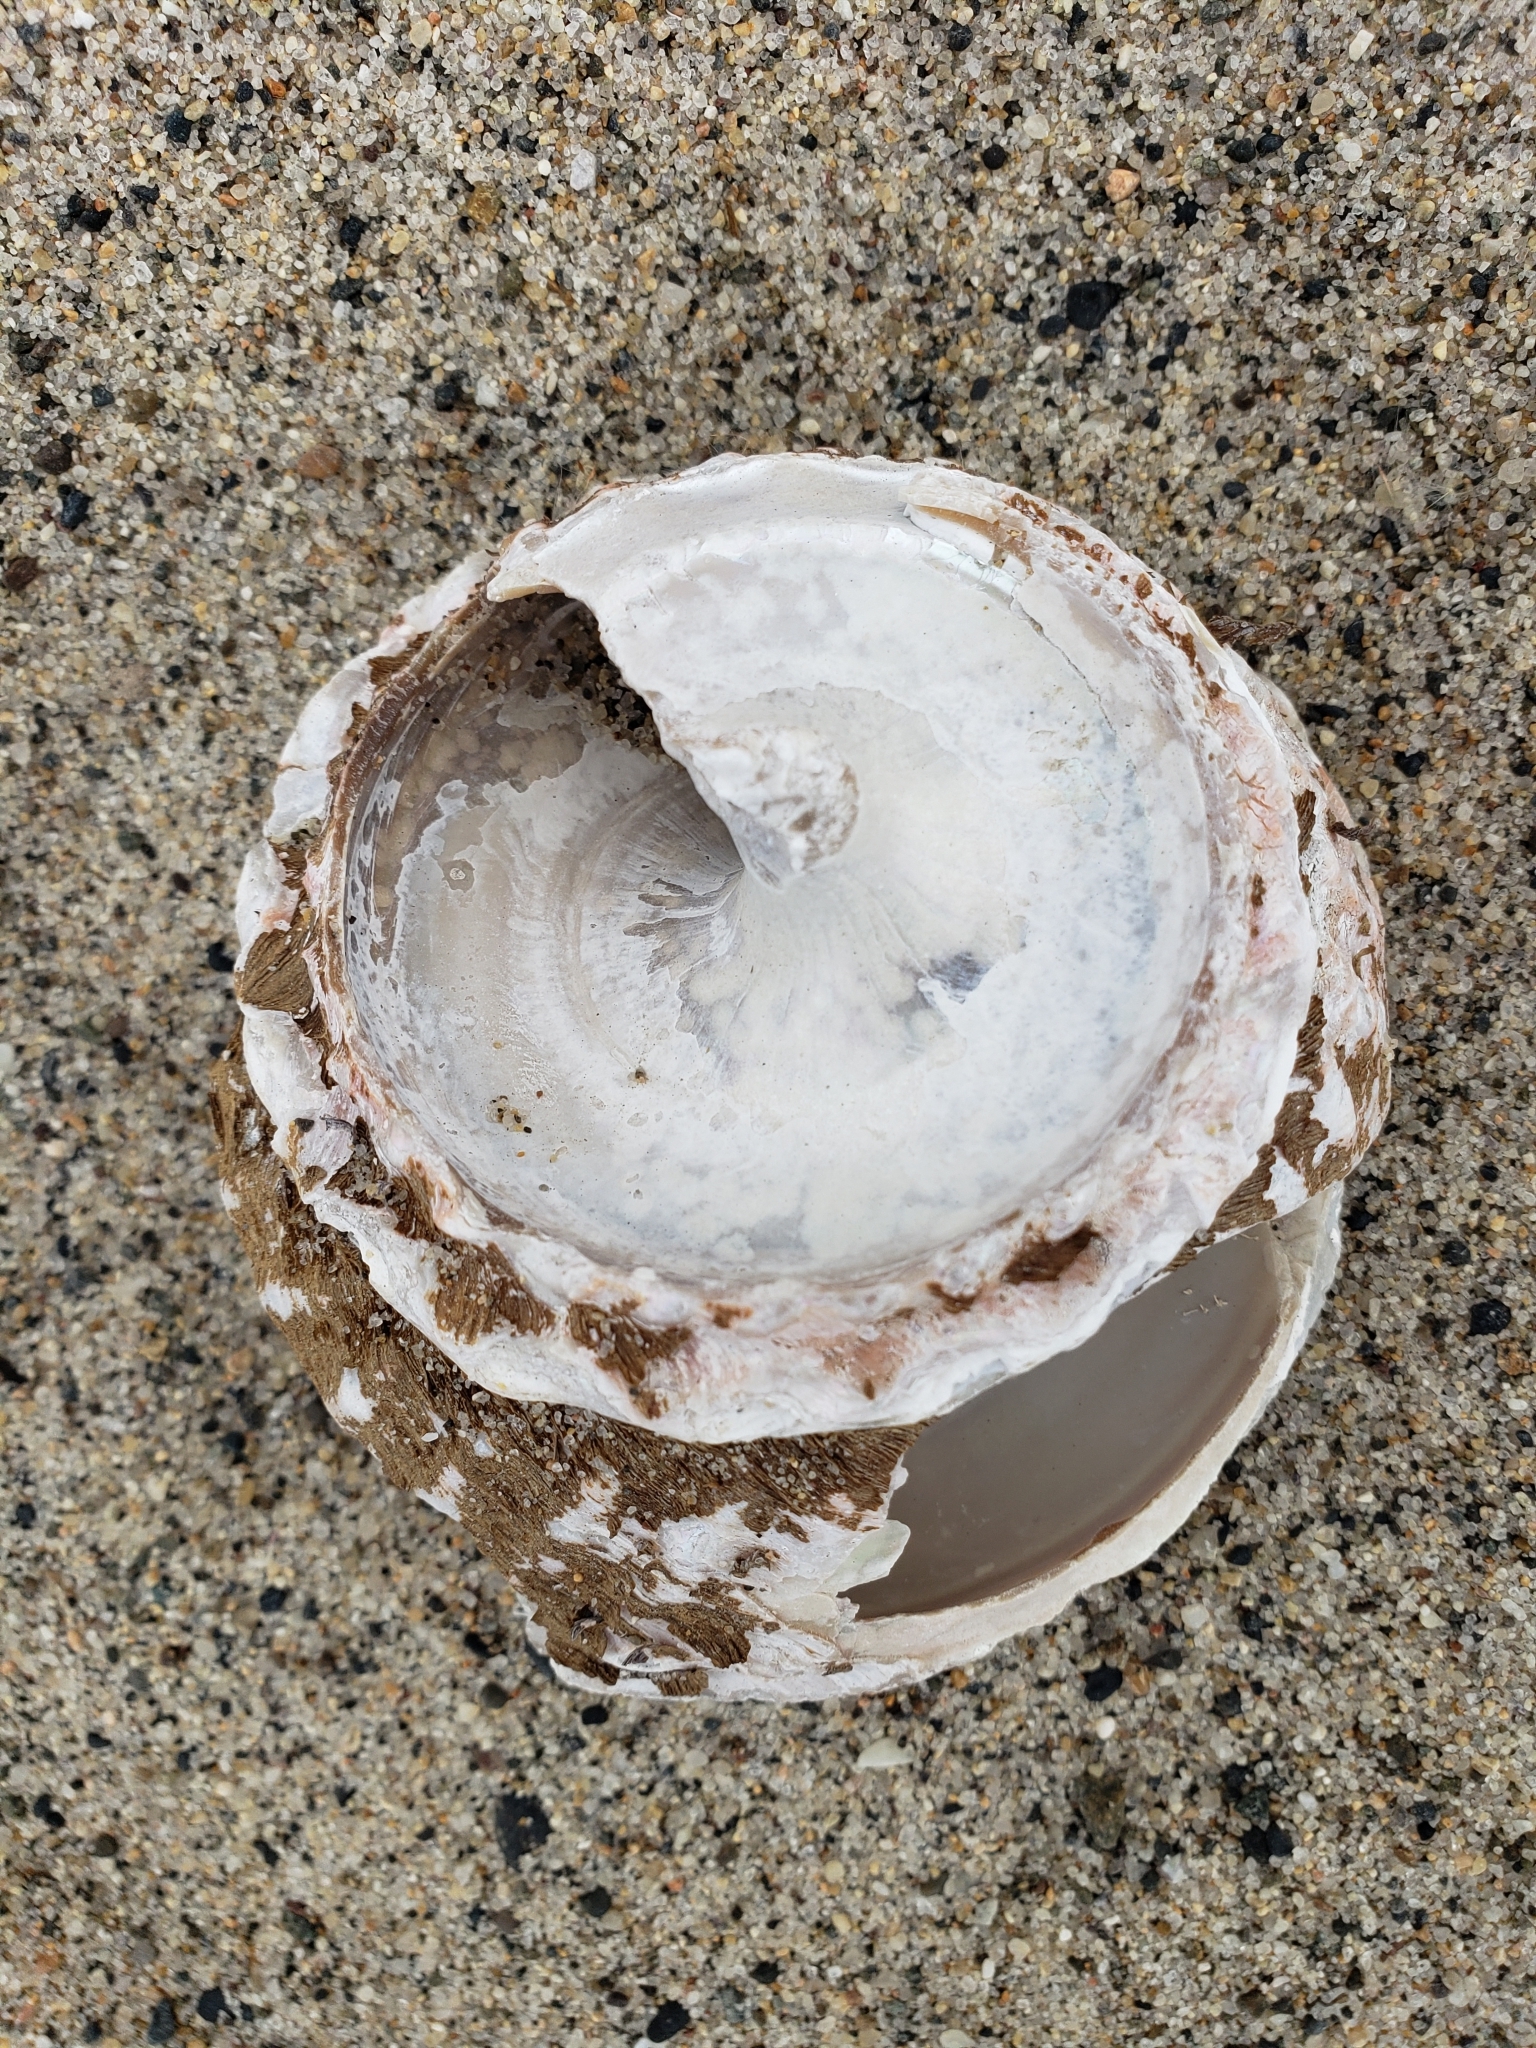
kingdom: Animalia
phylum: Mollusca
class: Gastropoda
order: Trochida
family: Turbinidae
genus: Megastraea
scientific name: Megastraea undosa
